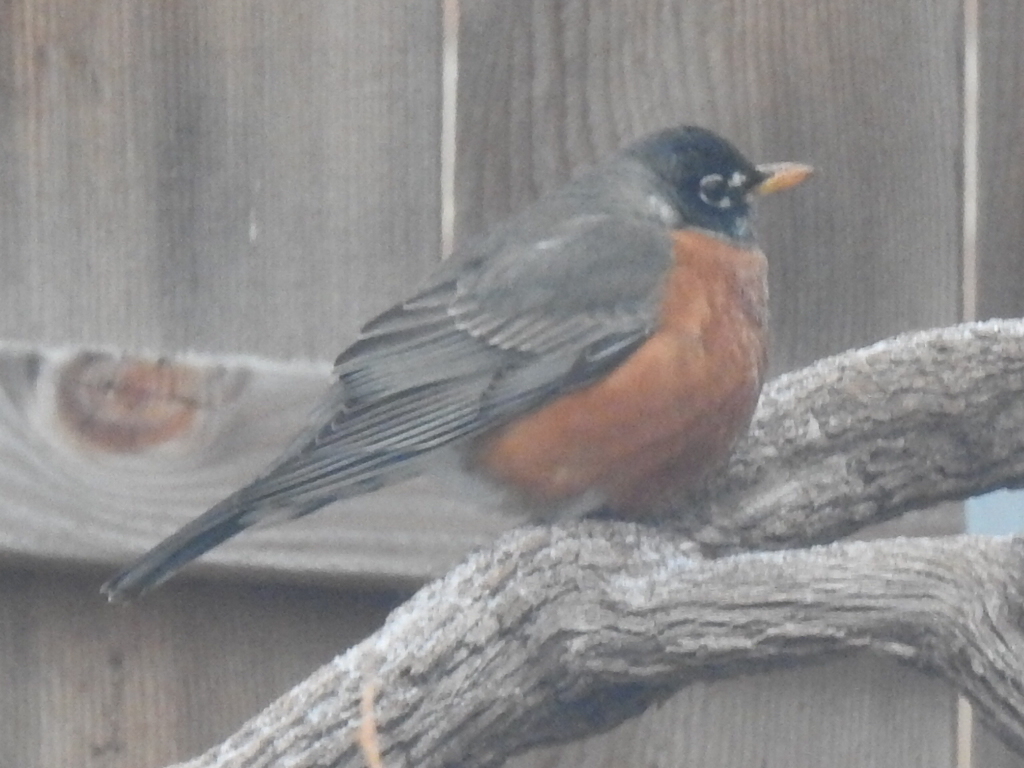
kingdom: Animalia
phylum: Chordata
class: Aves
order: Passeriformes
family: Turdidae
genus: Turdus
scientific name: Turdus migratorius
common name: American robin
